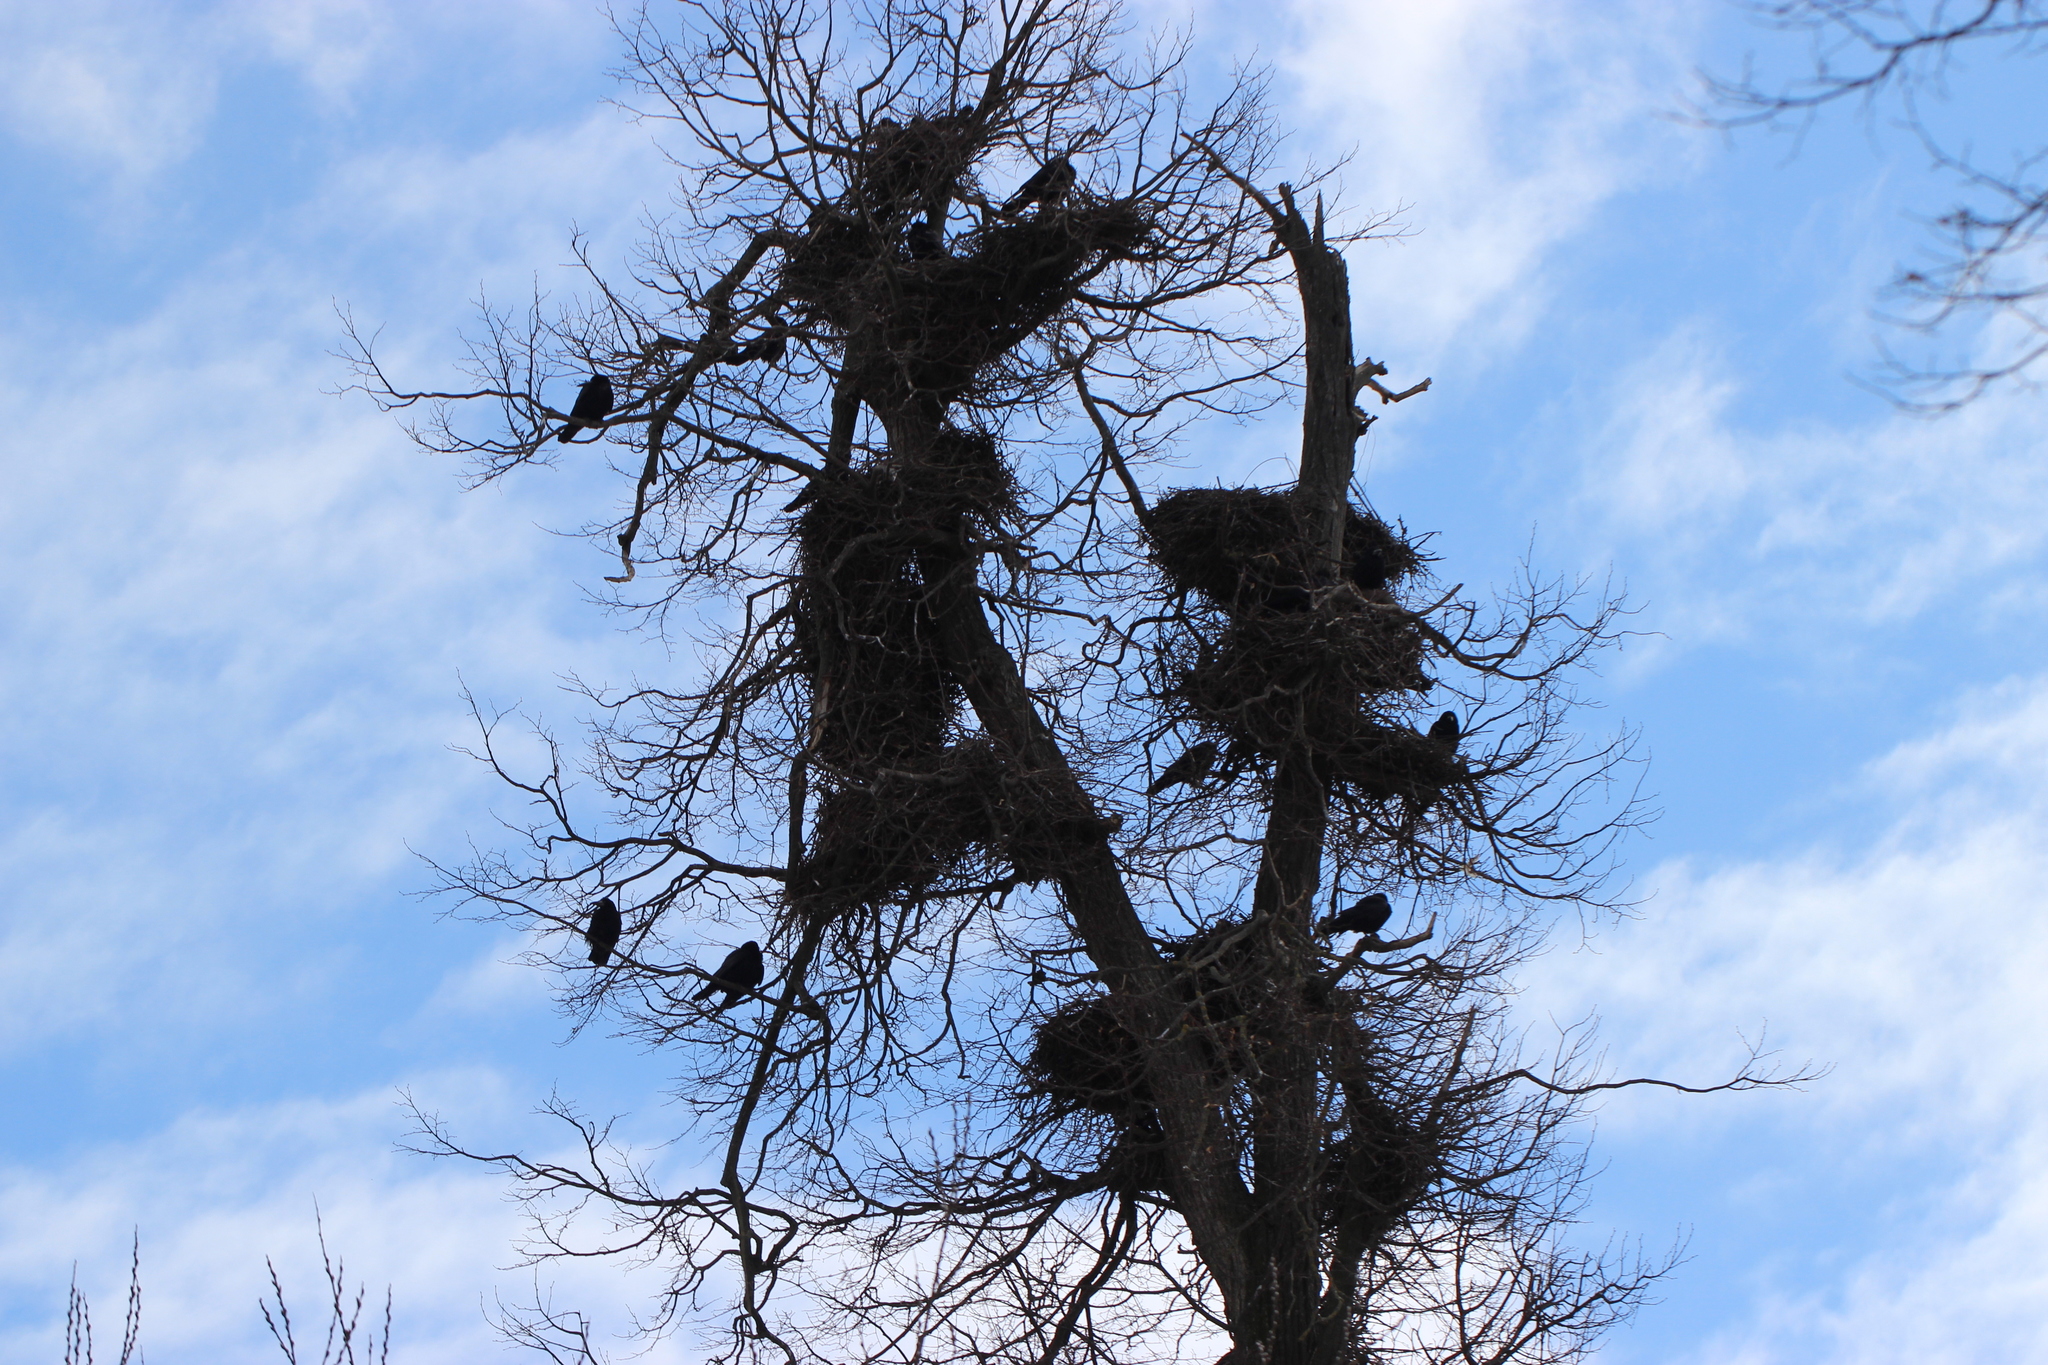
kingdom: Animalia
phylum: Chordata
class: Aves
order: Passeriformes
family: Corvidae
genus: Corvus
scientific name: Corvus frugilegus
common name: Rook
